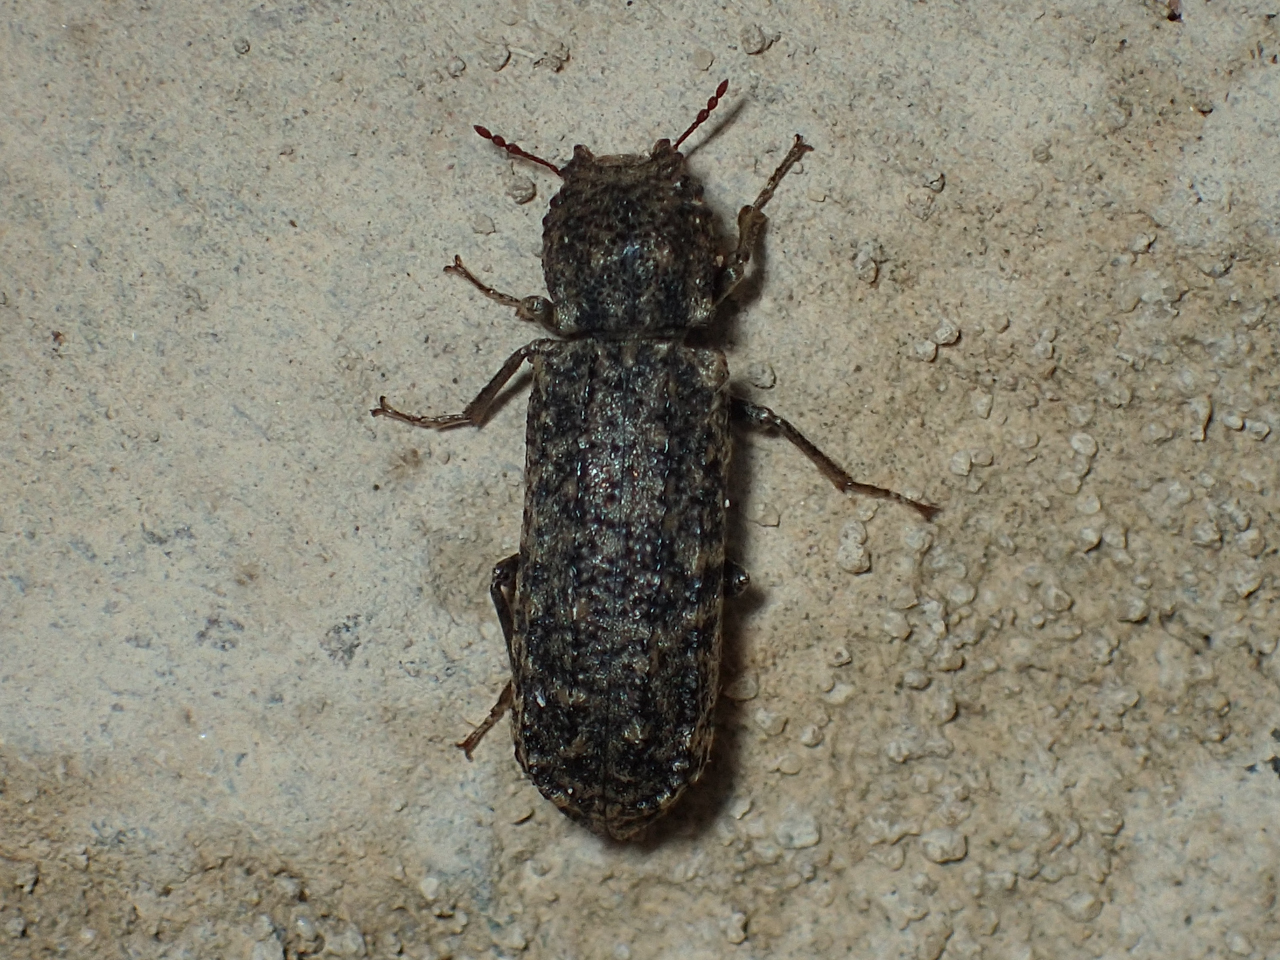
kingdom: Animalia
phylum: Arthropoda
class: Insecta
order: Coleoptera
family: Bostrichidae
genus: Lichenophanes
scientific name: Lichenophanes bicornis
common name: Two-horned powder-post beetle
